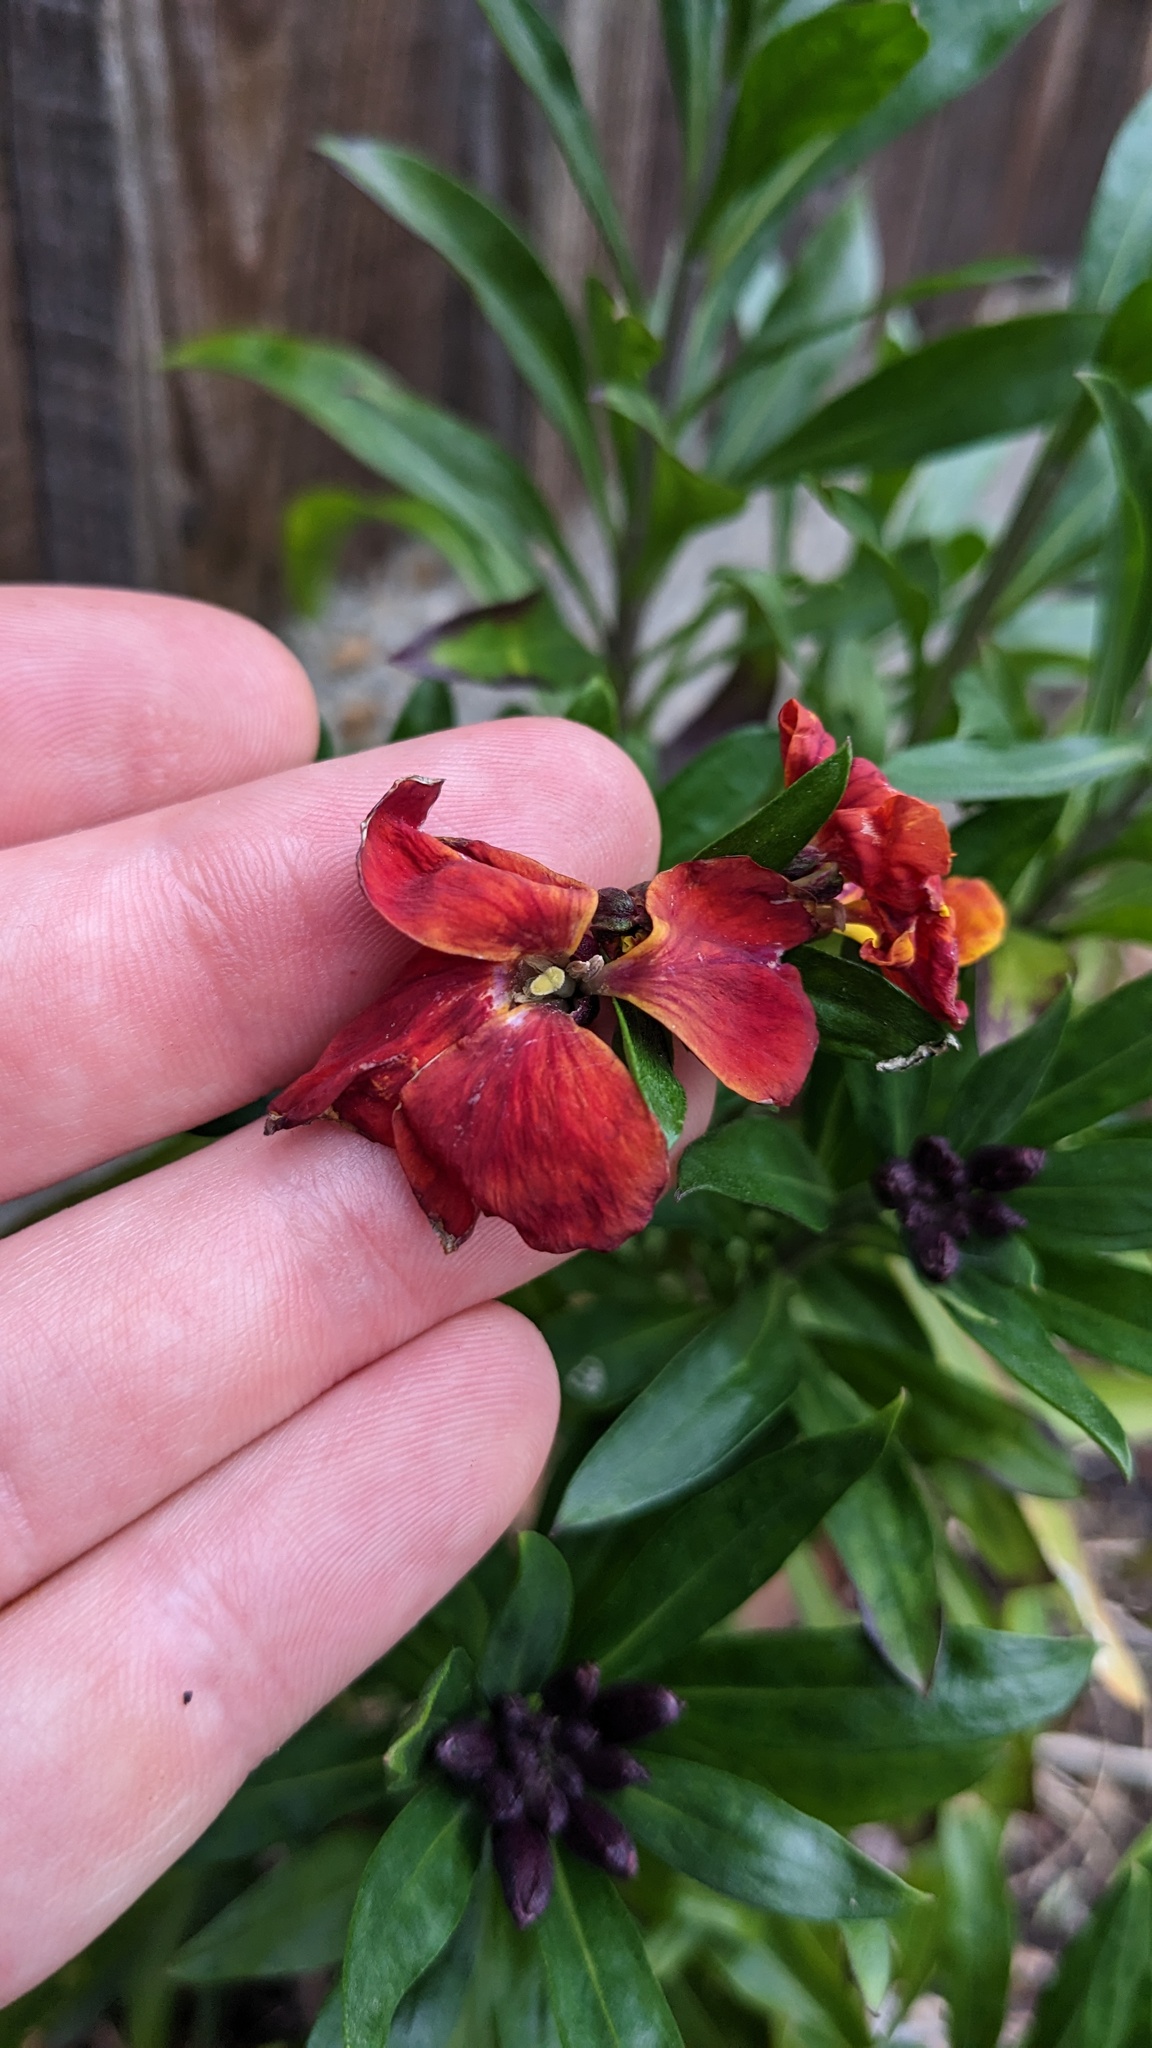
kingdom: Plantae
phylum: Tracheophyta
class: Magnoliopsida
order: Brassicales
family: Brassicaceae
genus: Erysimum
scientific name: Erysimum cheiri
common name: Wallflower
